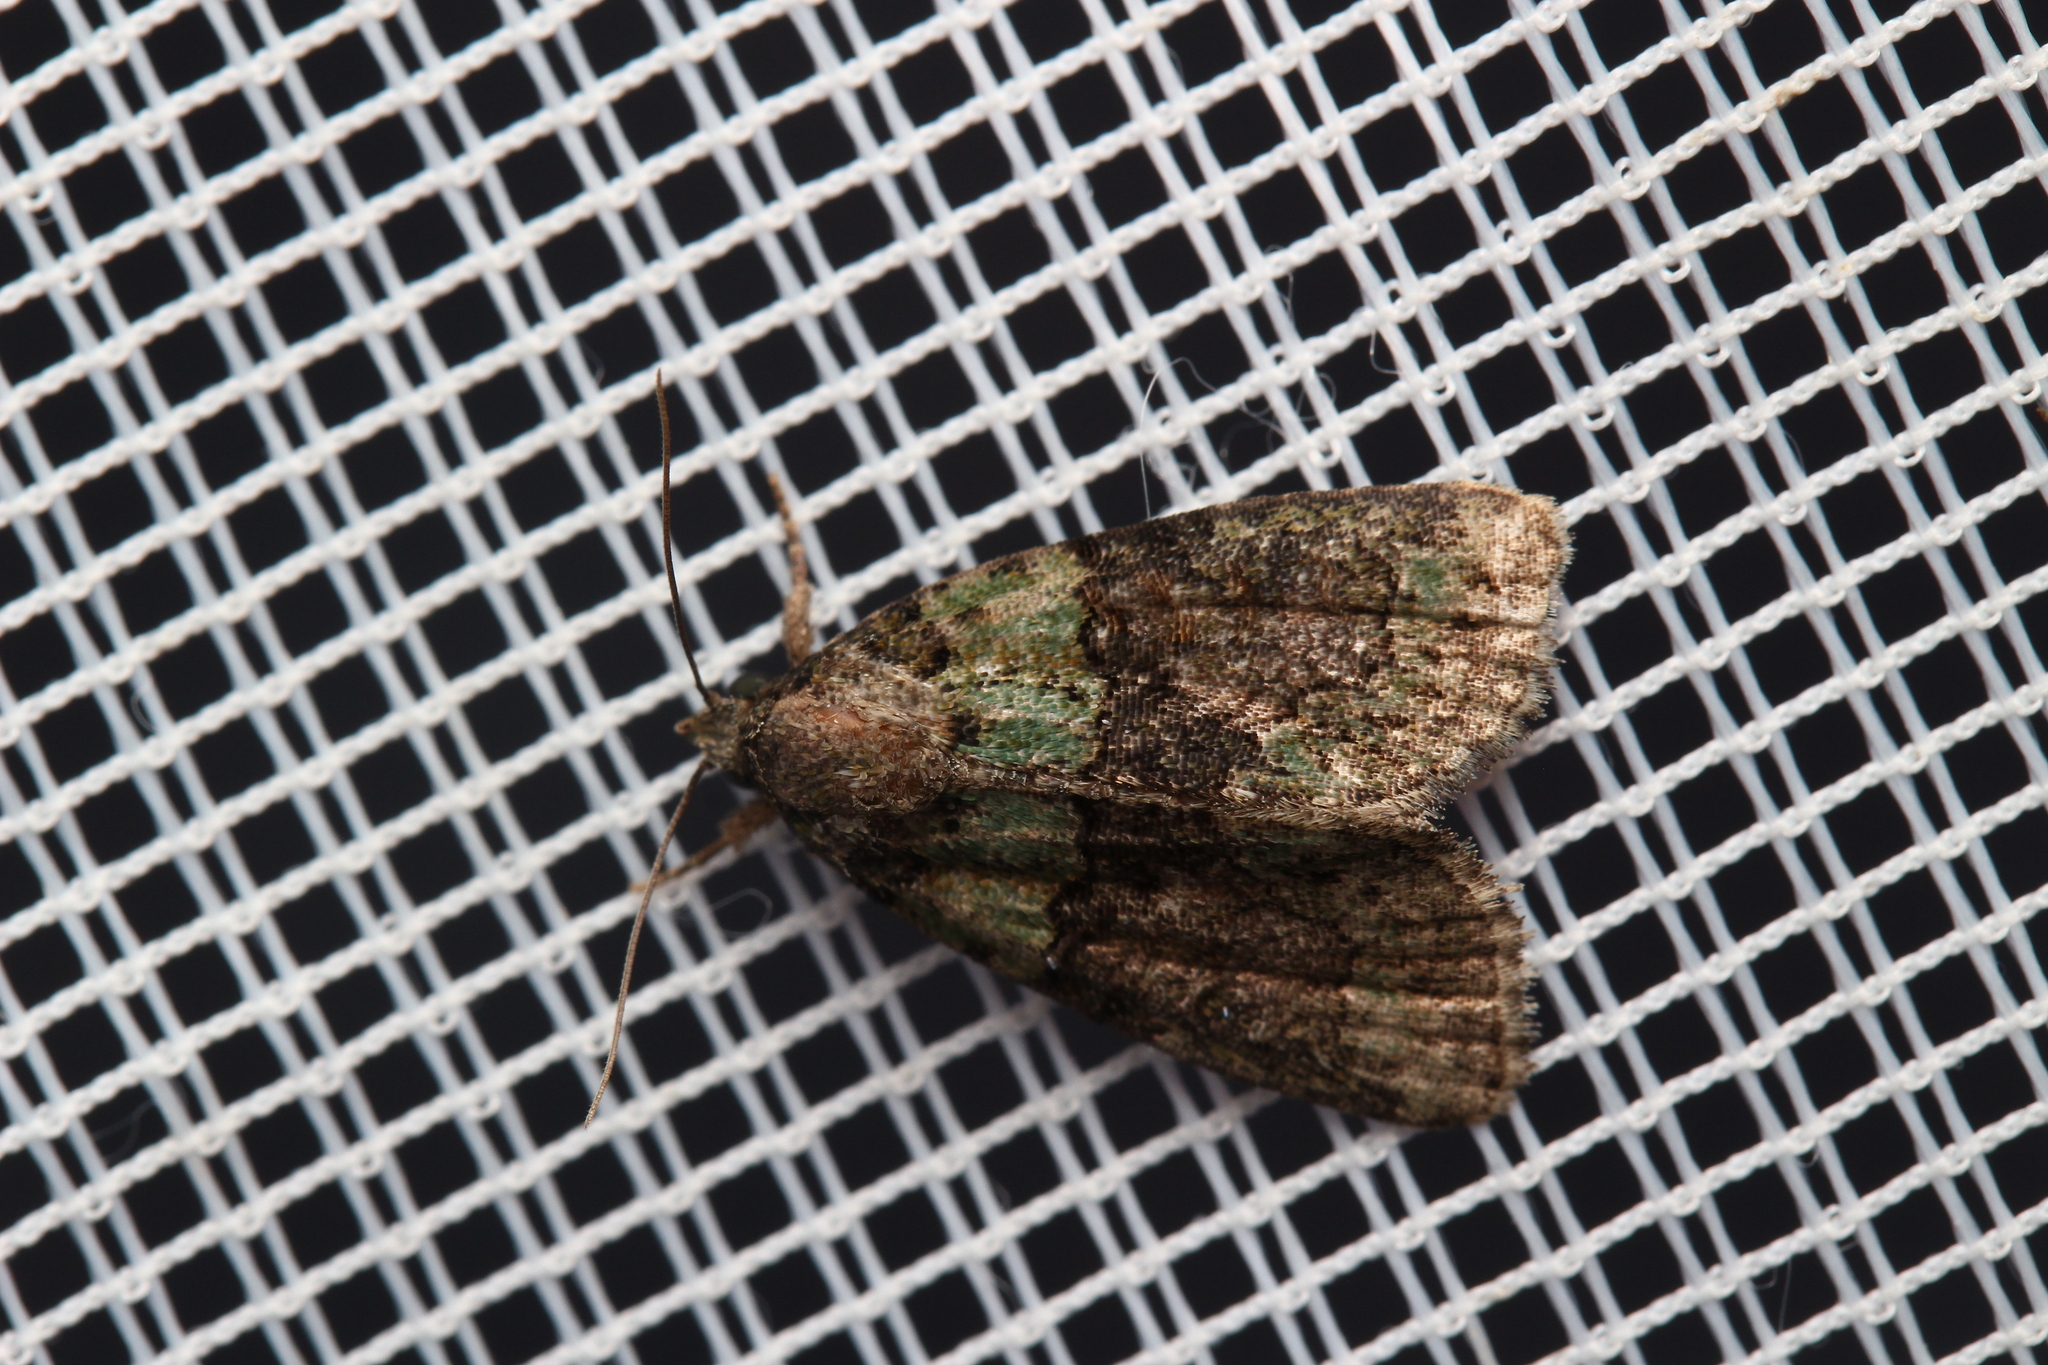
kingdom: Animalia
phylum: Arthropoda
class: Insecta
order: Lepidoptera
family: Noctuidae
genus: Cryphia
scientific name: Cryphia algae
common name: Tree-lichen beauty
